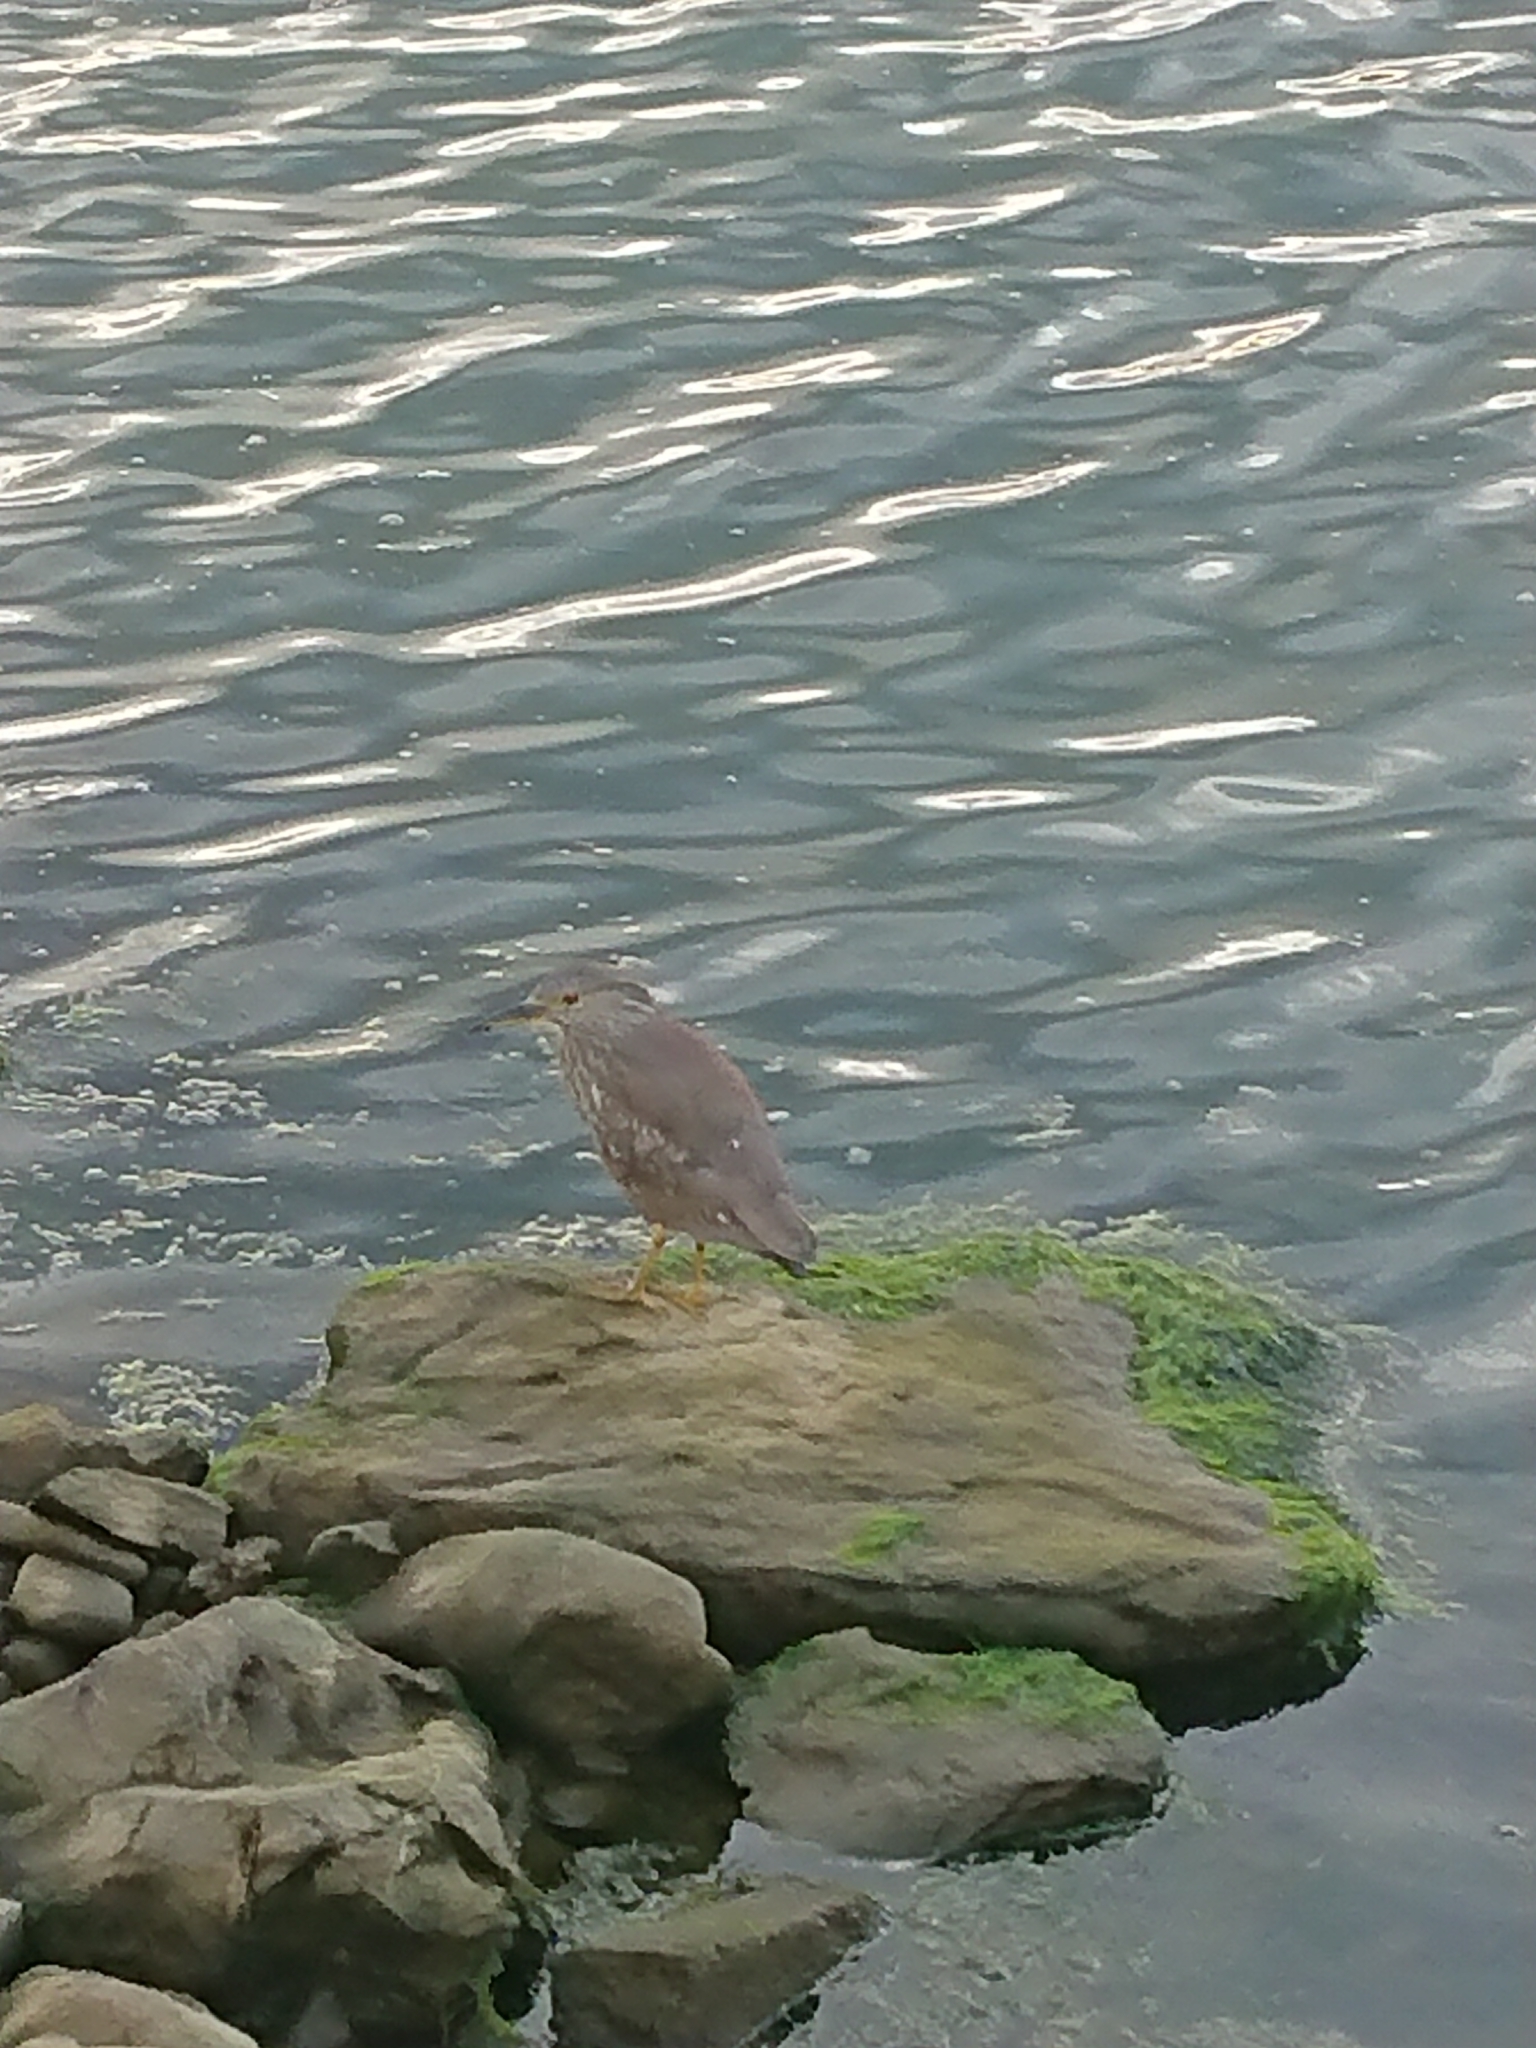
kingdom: Animalia
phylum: Chordata
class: Aves
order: Pelecaniformes
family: Ardeidae
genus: Nycticorax
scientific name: Nycticorax nycticorax
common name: Black-crowned night heron
